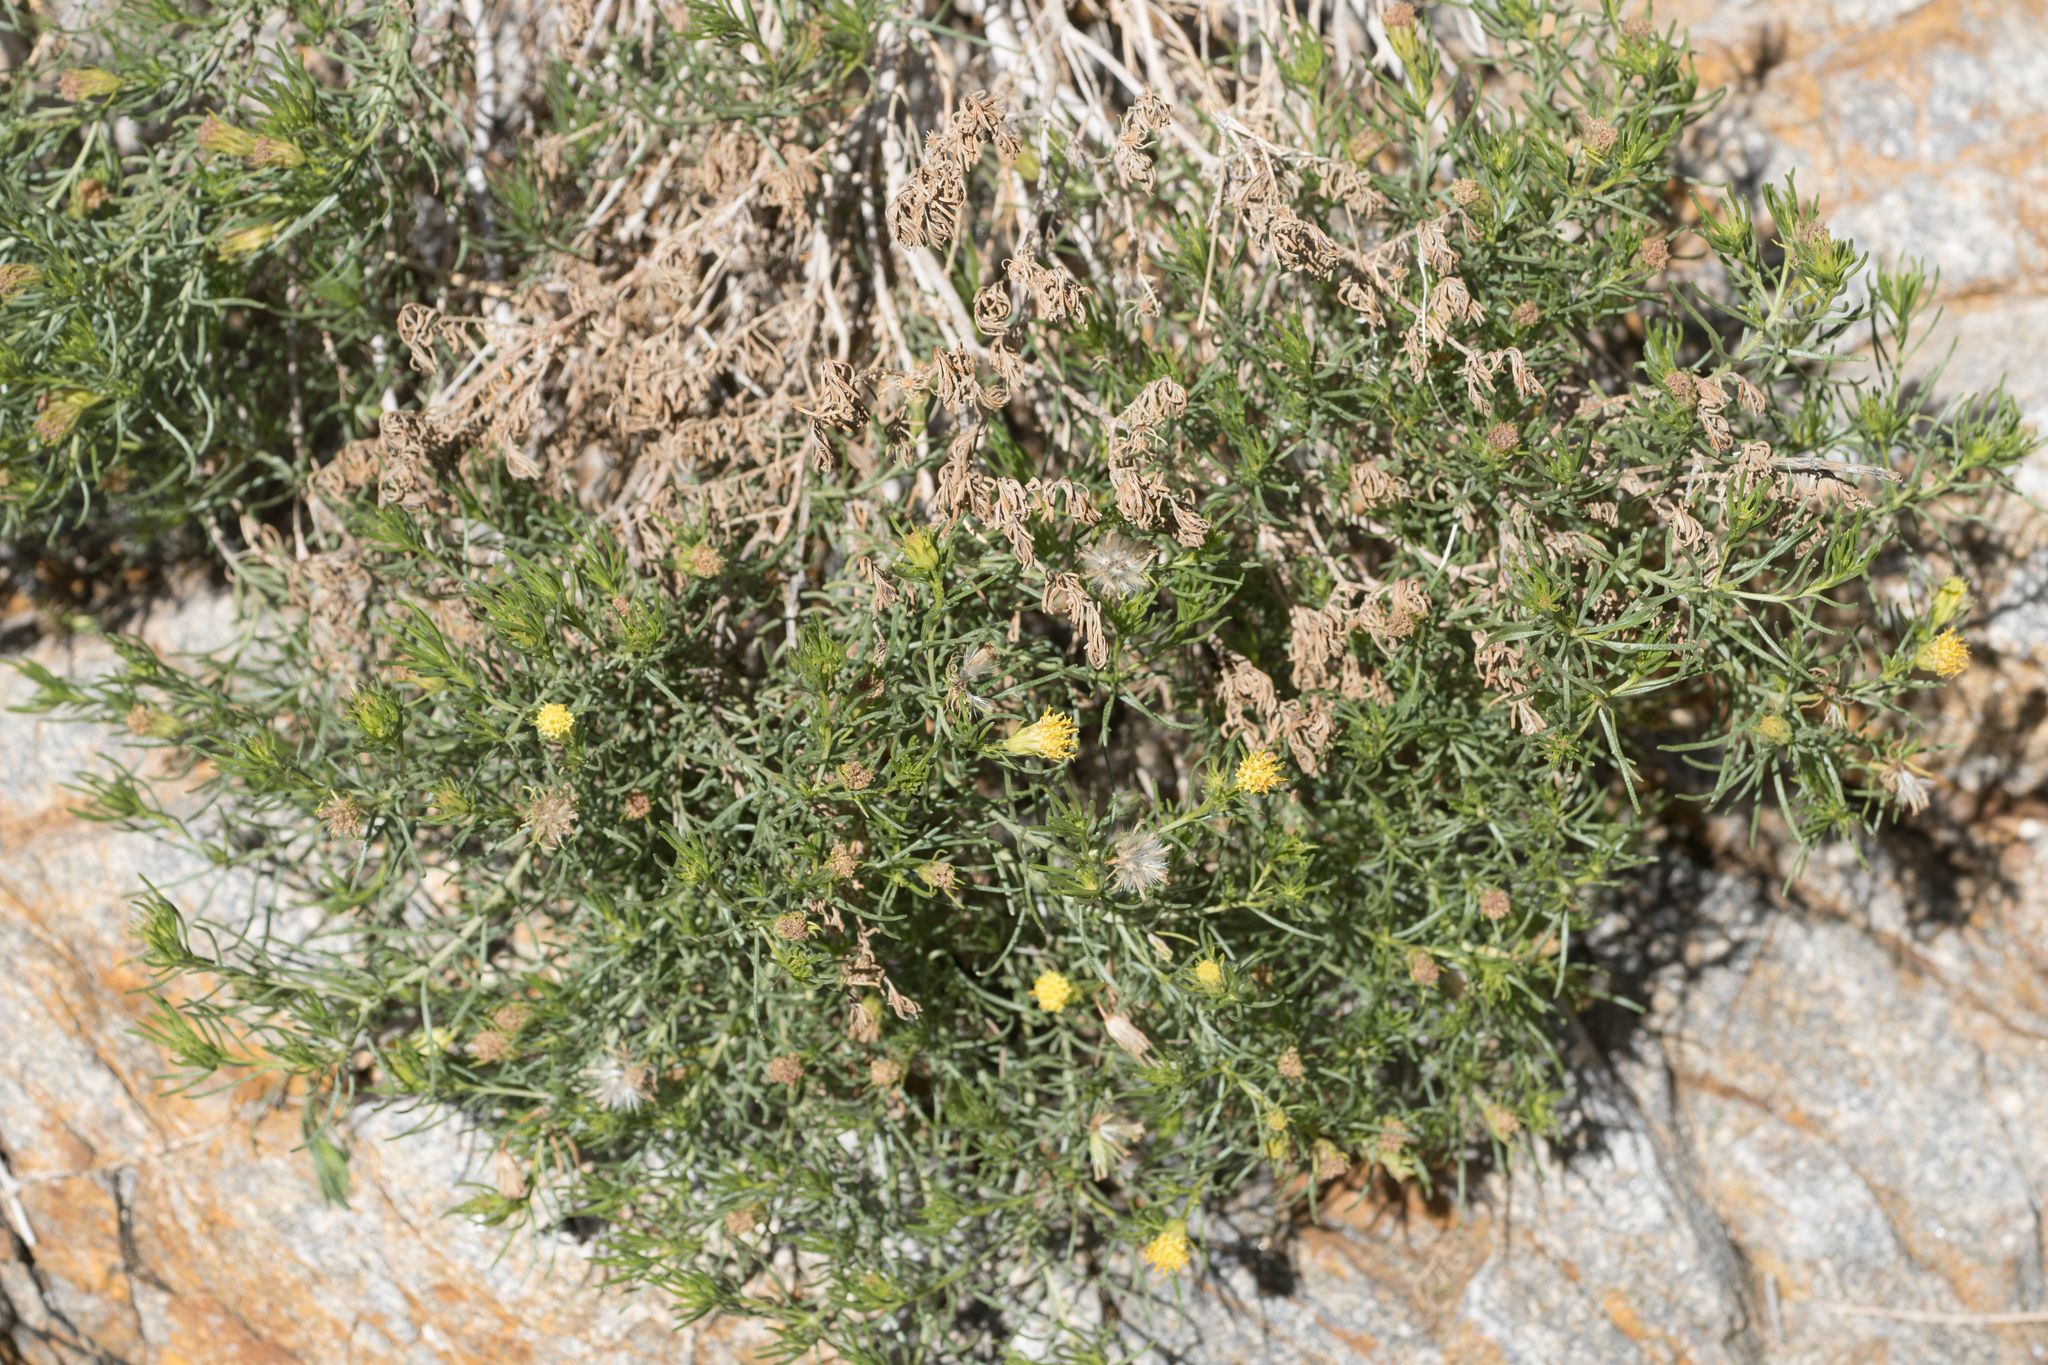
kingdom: Plantae
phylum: Tracheophyta
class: Magnoliopsida
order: Asterales
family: Asteraceae
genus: Peucephyllum
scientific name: Peucephyllum schottii
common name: Pygmy-cedar
